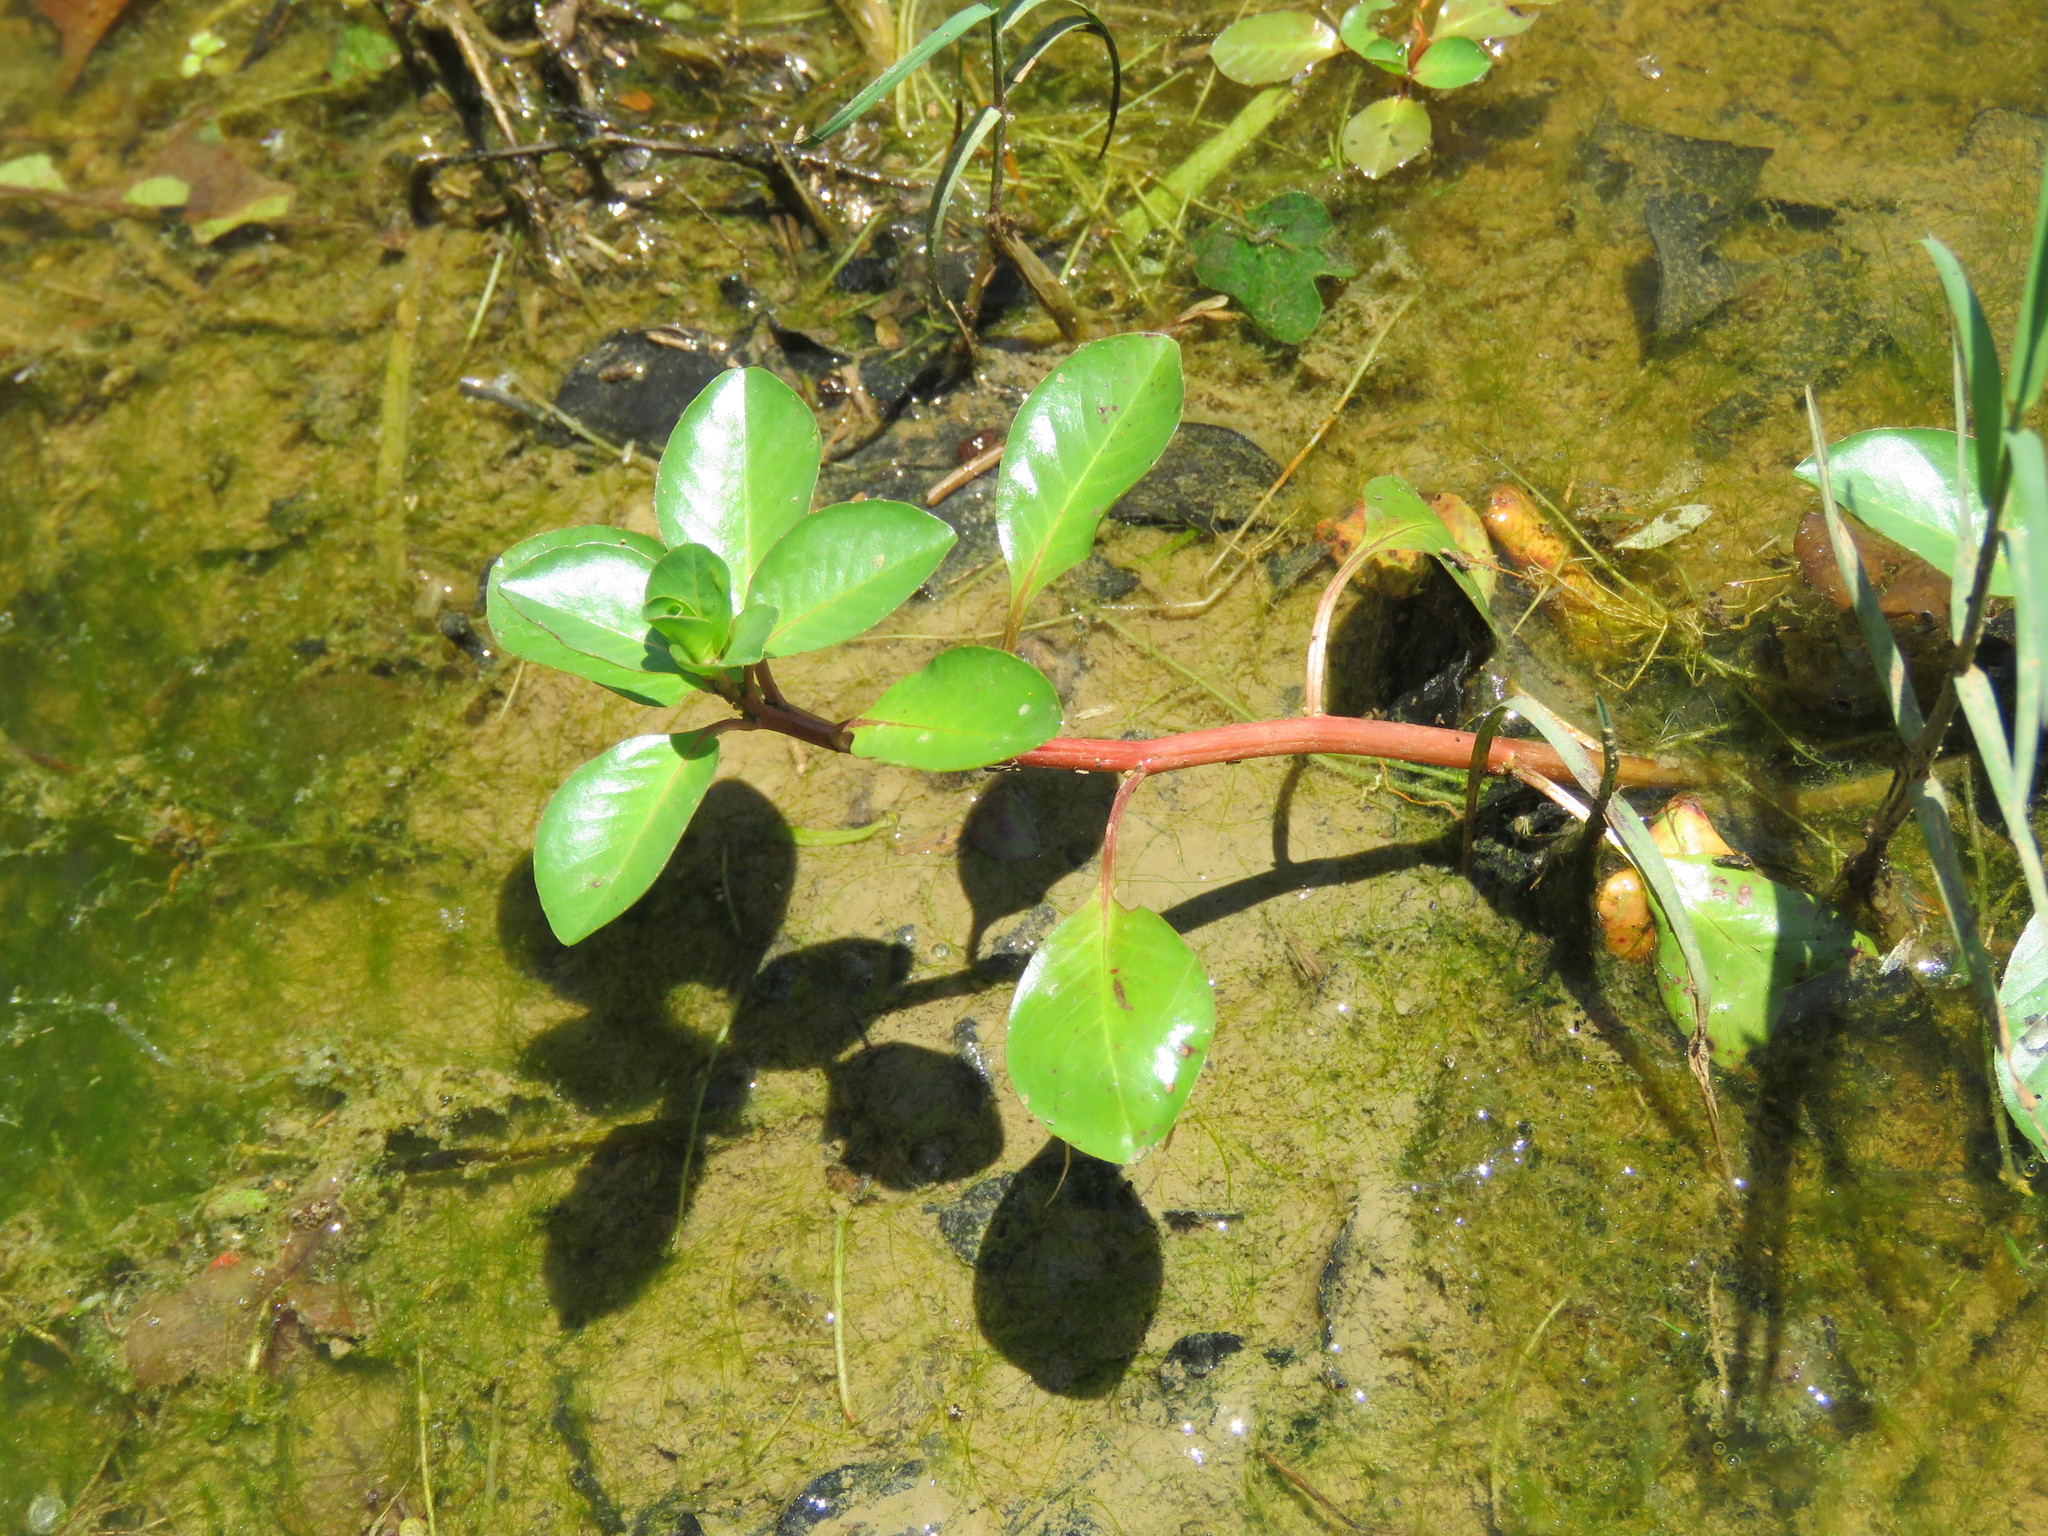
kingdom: Plantae
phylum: Tracheophyta
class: Magnoliopsida
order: Myrtales
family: Onagraceae
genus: Ludwigia
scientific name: Ludwigia peploides
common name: Floating primrose-willow
